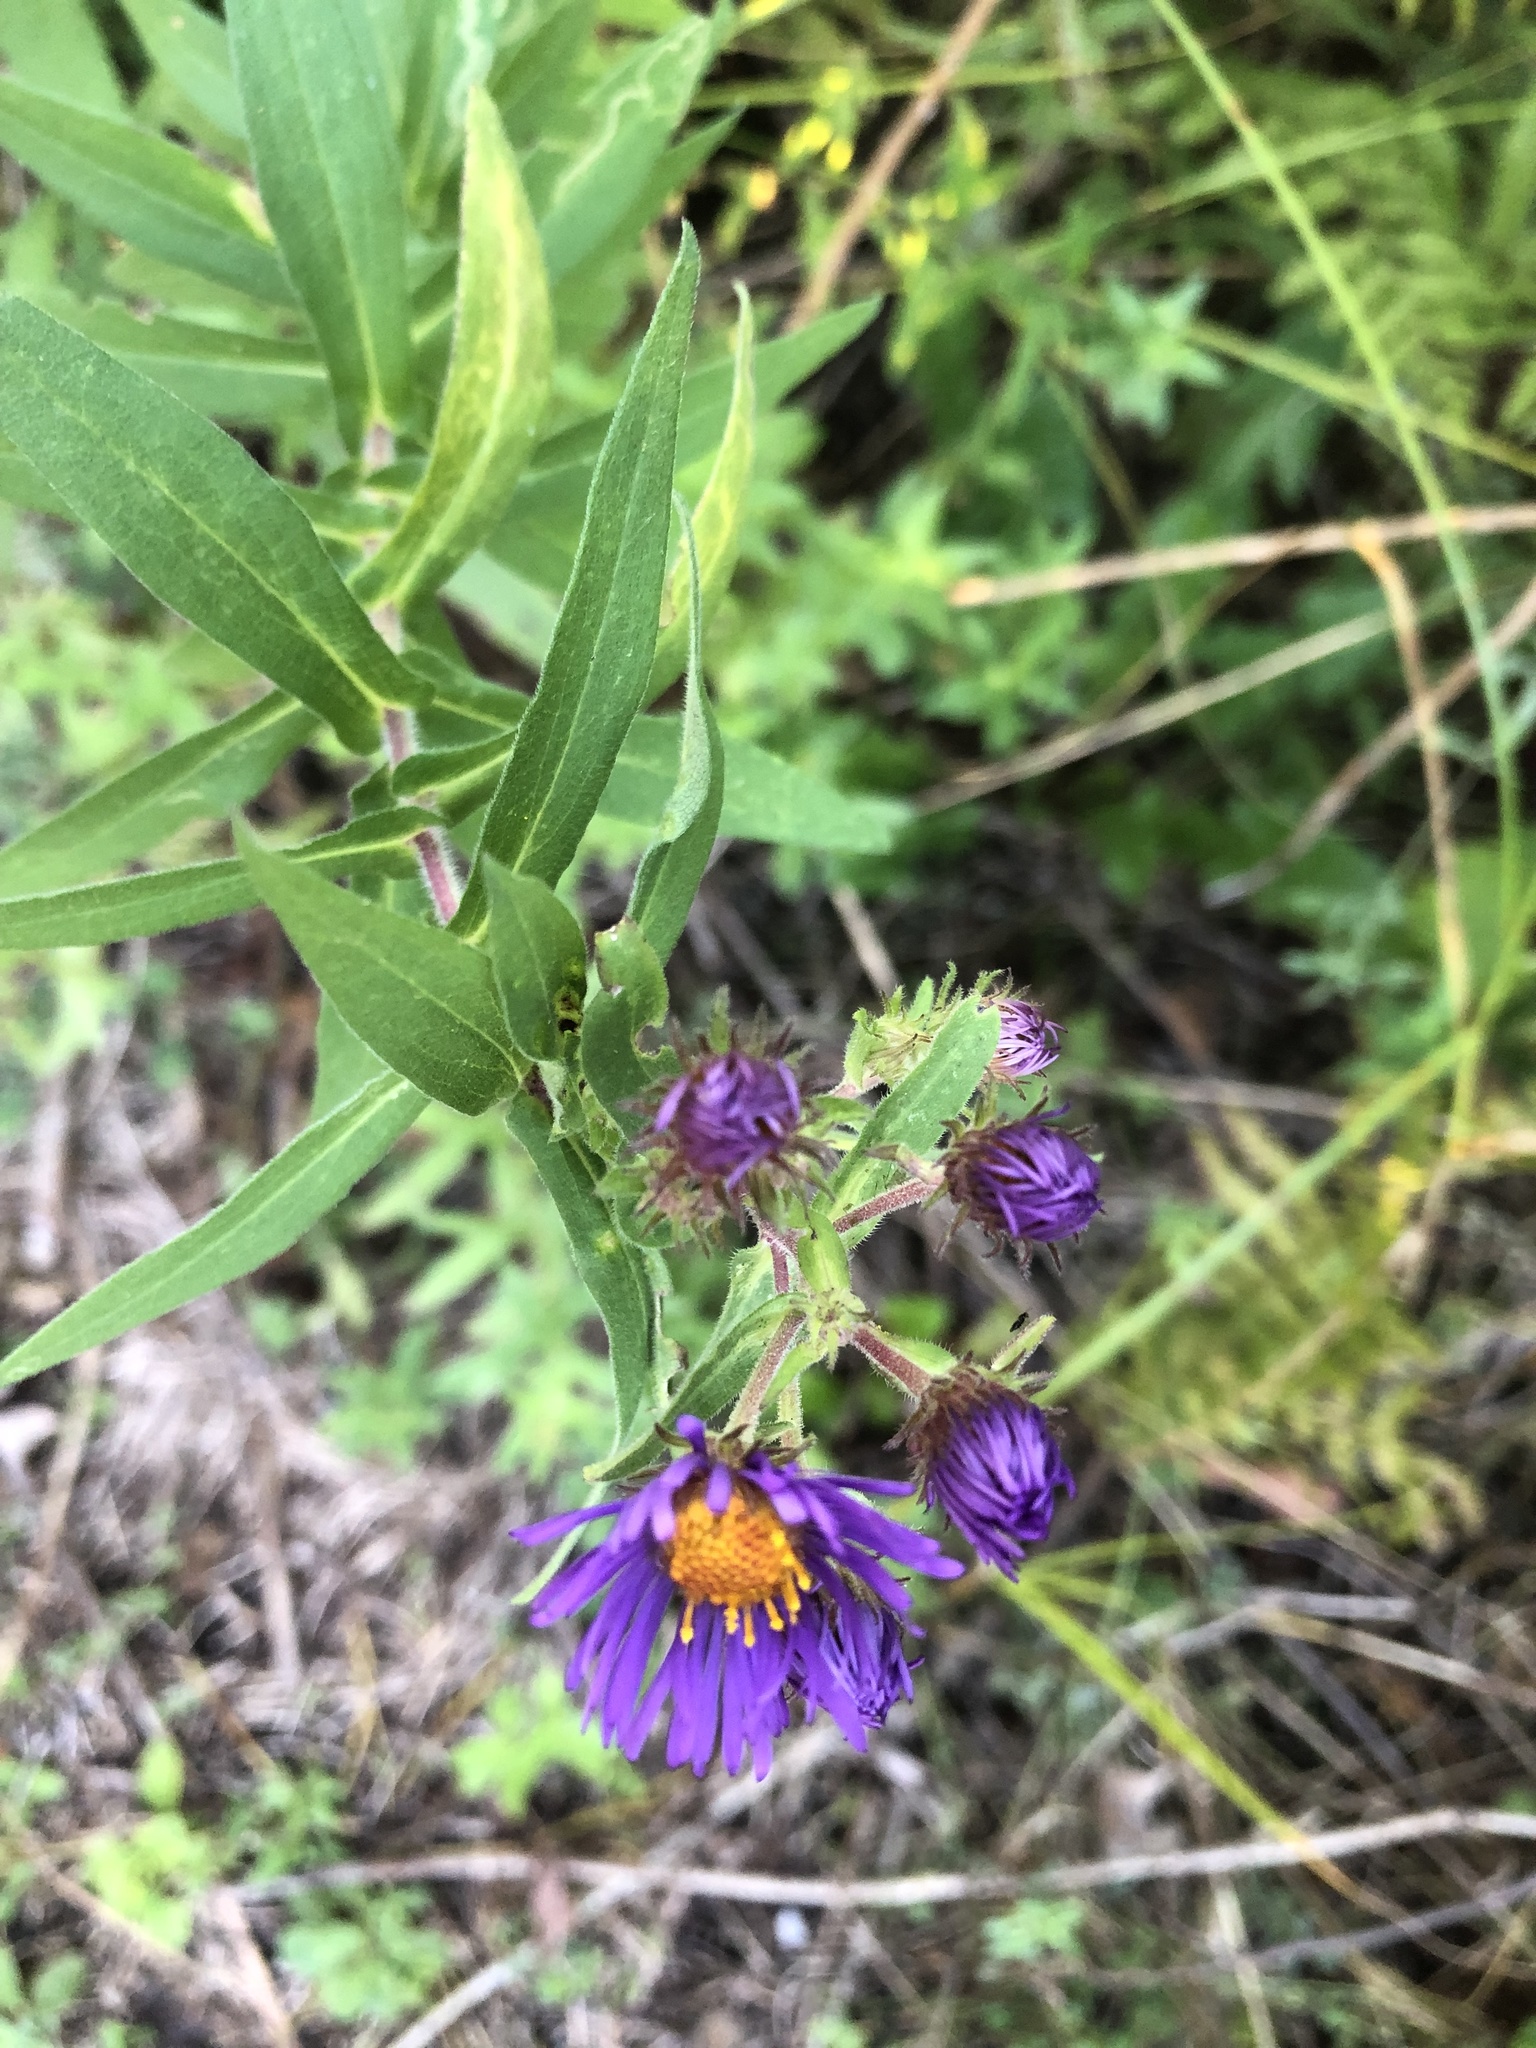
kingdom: Plantae
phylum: Tracheophyta
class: Magnoliopsida
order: Asterales
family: Asteraceae
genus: Symphyotrichum
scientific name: Symphyotrichum novae-angliae
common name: Michaelmas daisy
